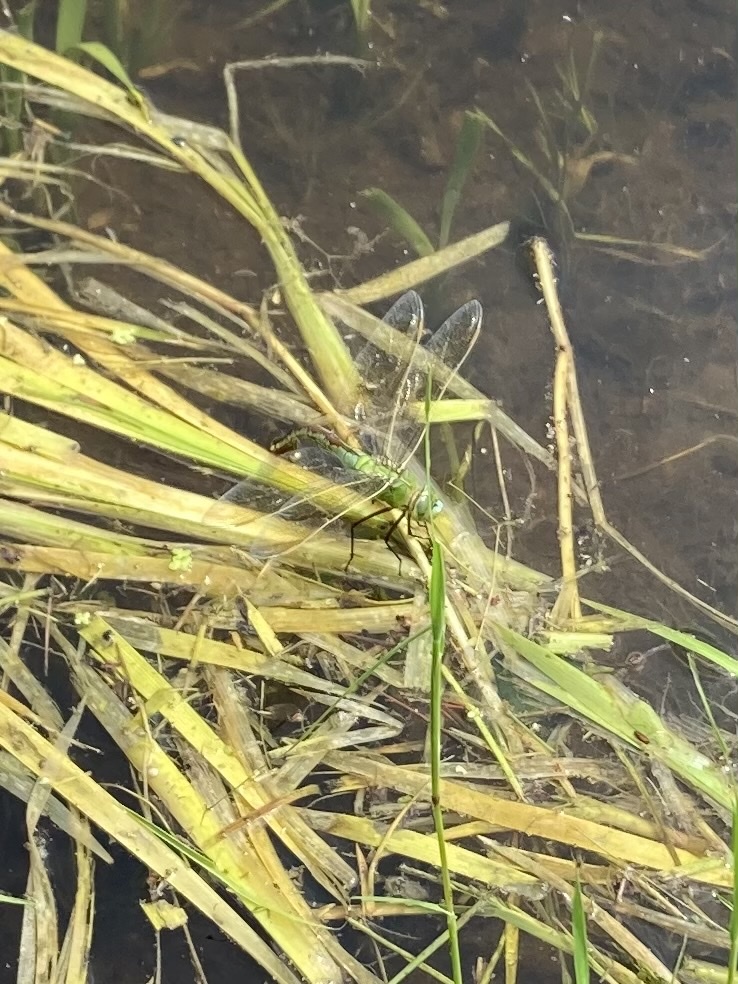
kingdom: Animalia
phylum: Arthropoda
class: Insecta
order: Odonata
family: Aeshnidae
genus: Anax
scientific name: Anax imperator
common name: Emperor dragonfly
